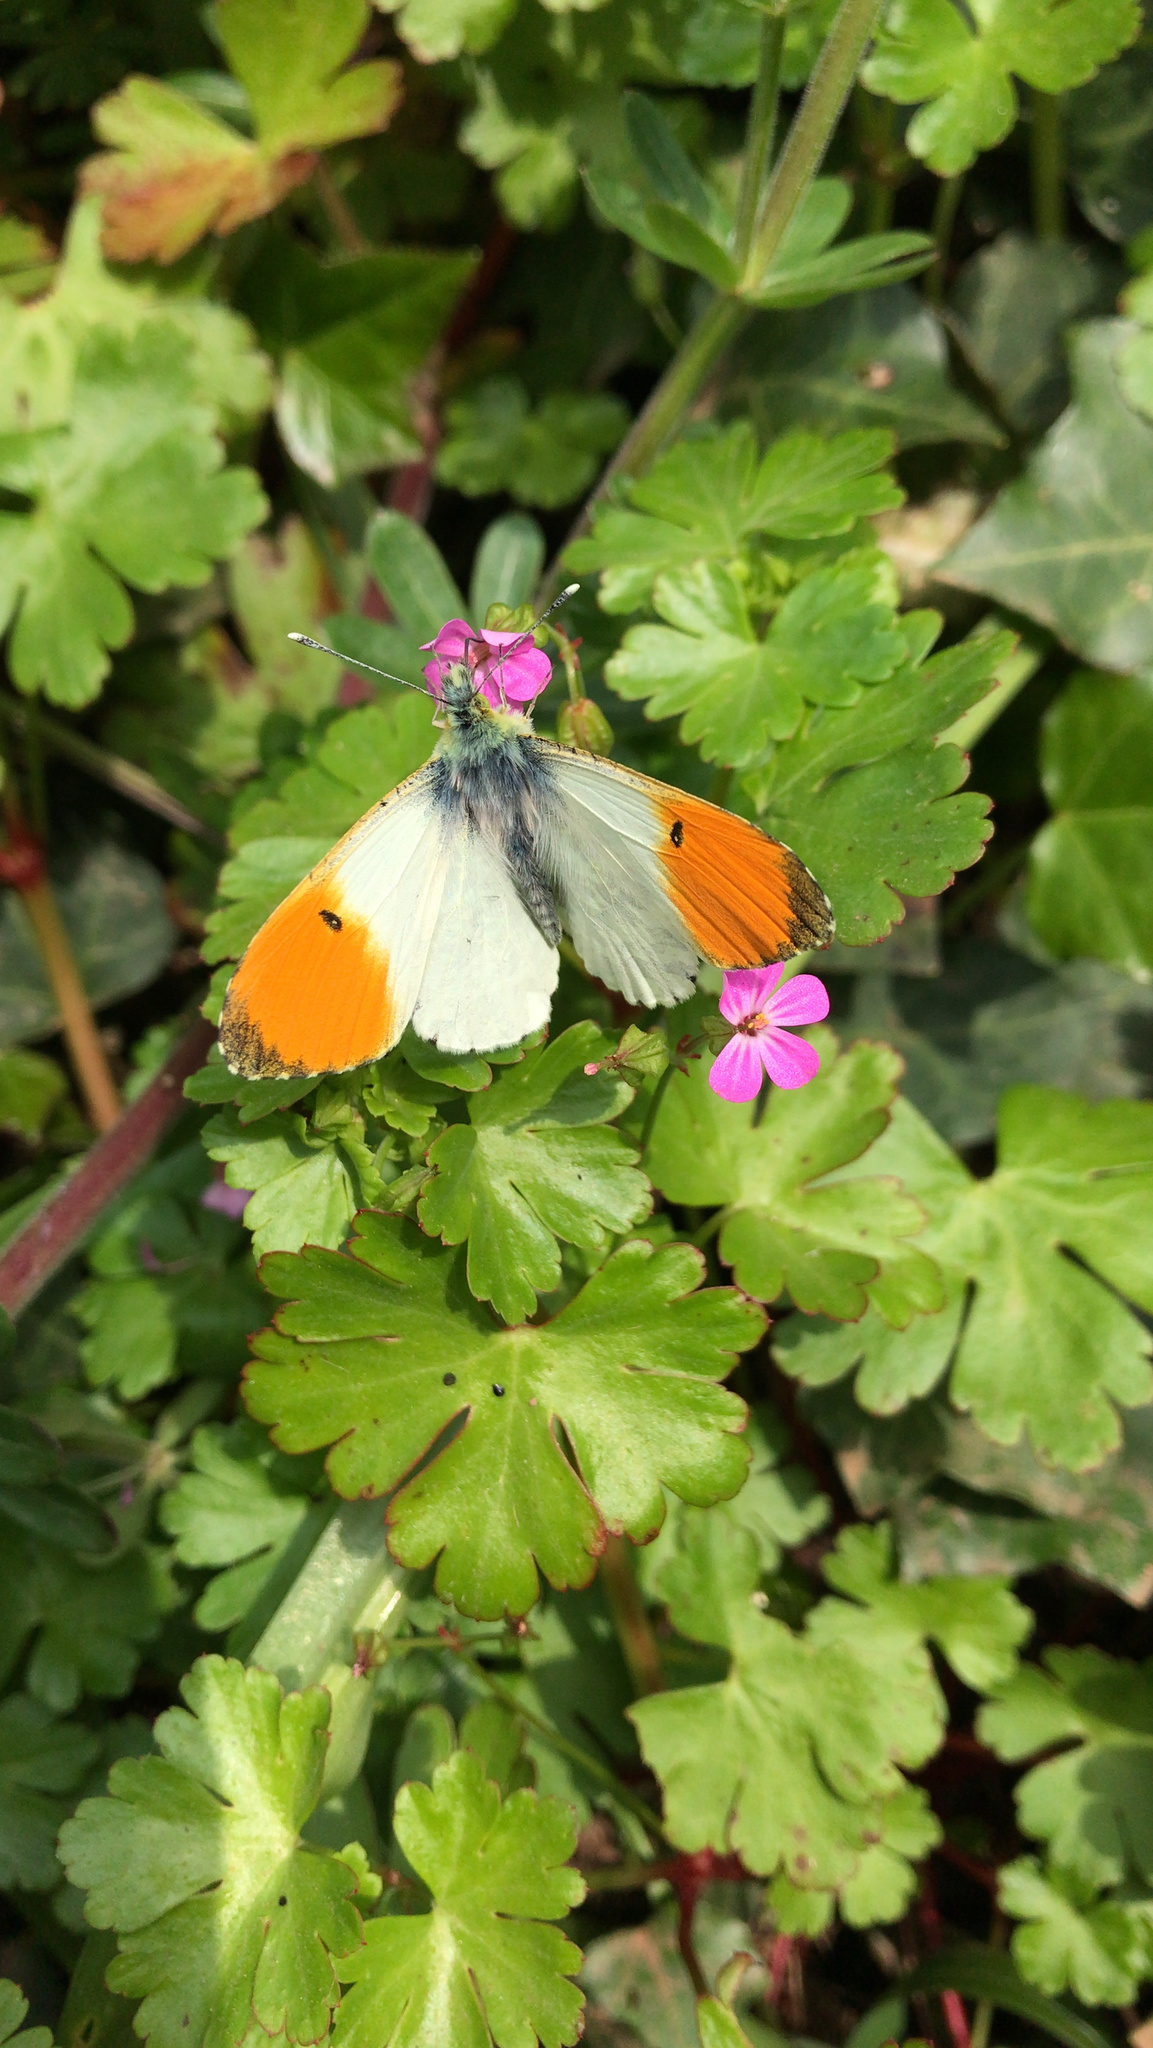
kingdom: Animalia
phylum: Arthropoda
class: Insecta
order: Lepidoptera
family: Pieridae
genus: Anthocharis
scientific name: Anthocharis cardamines
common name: Orange-tip
